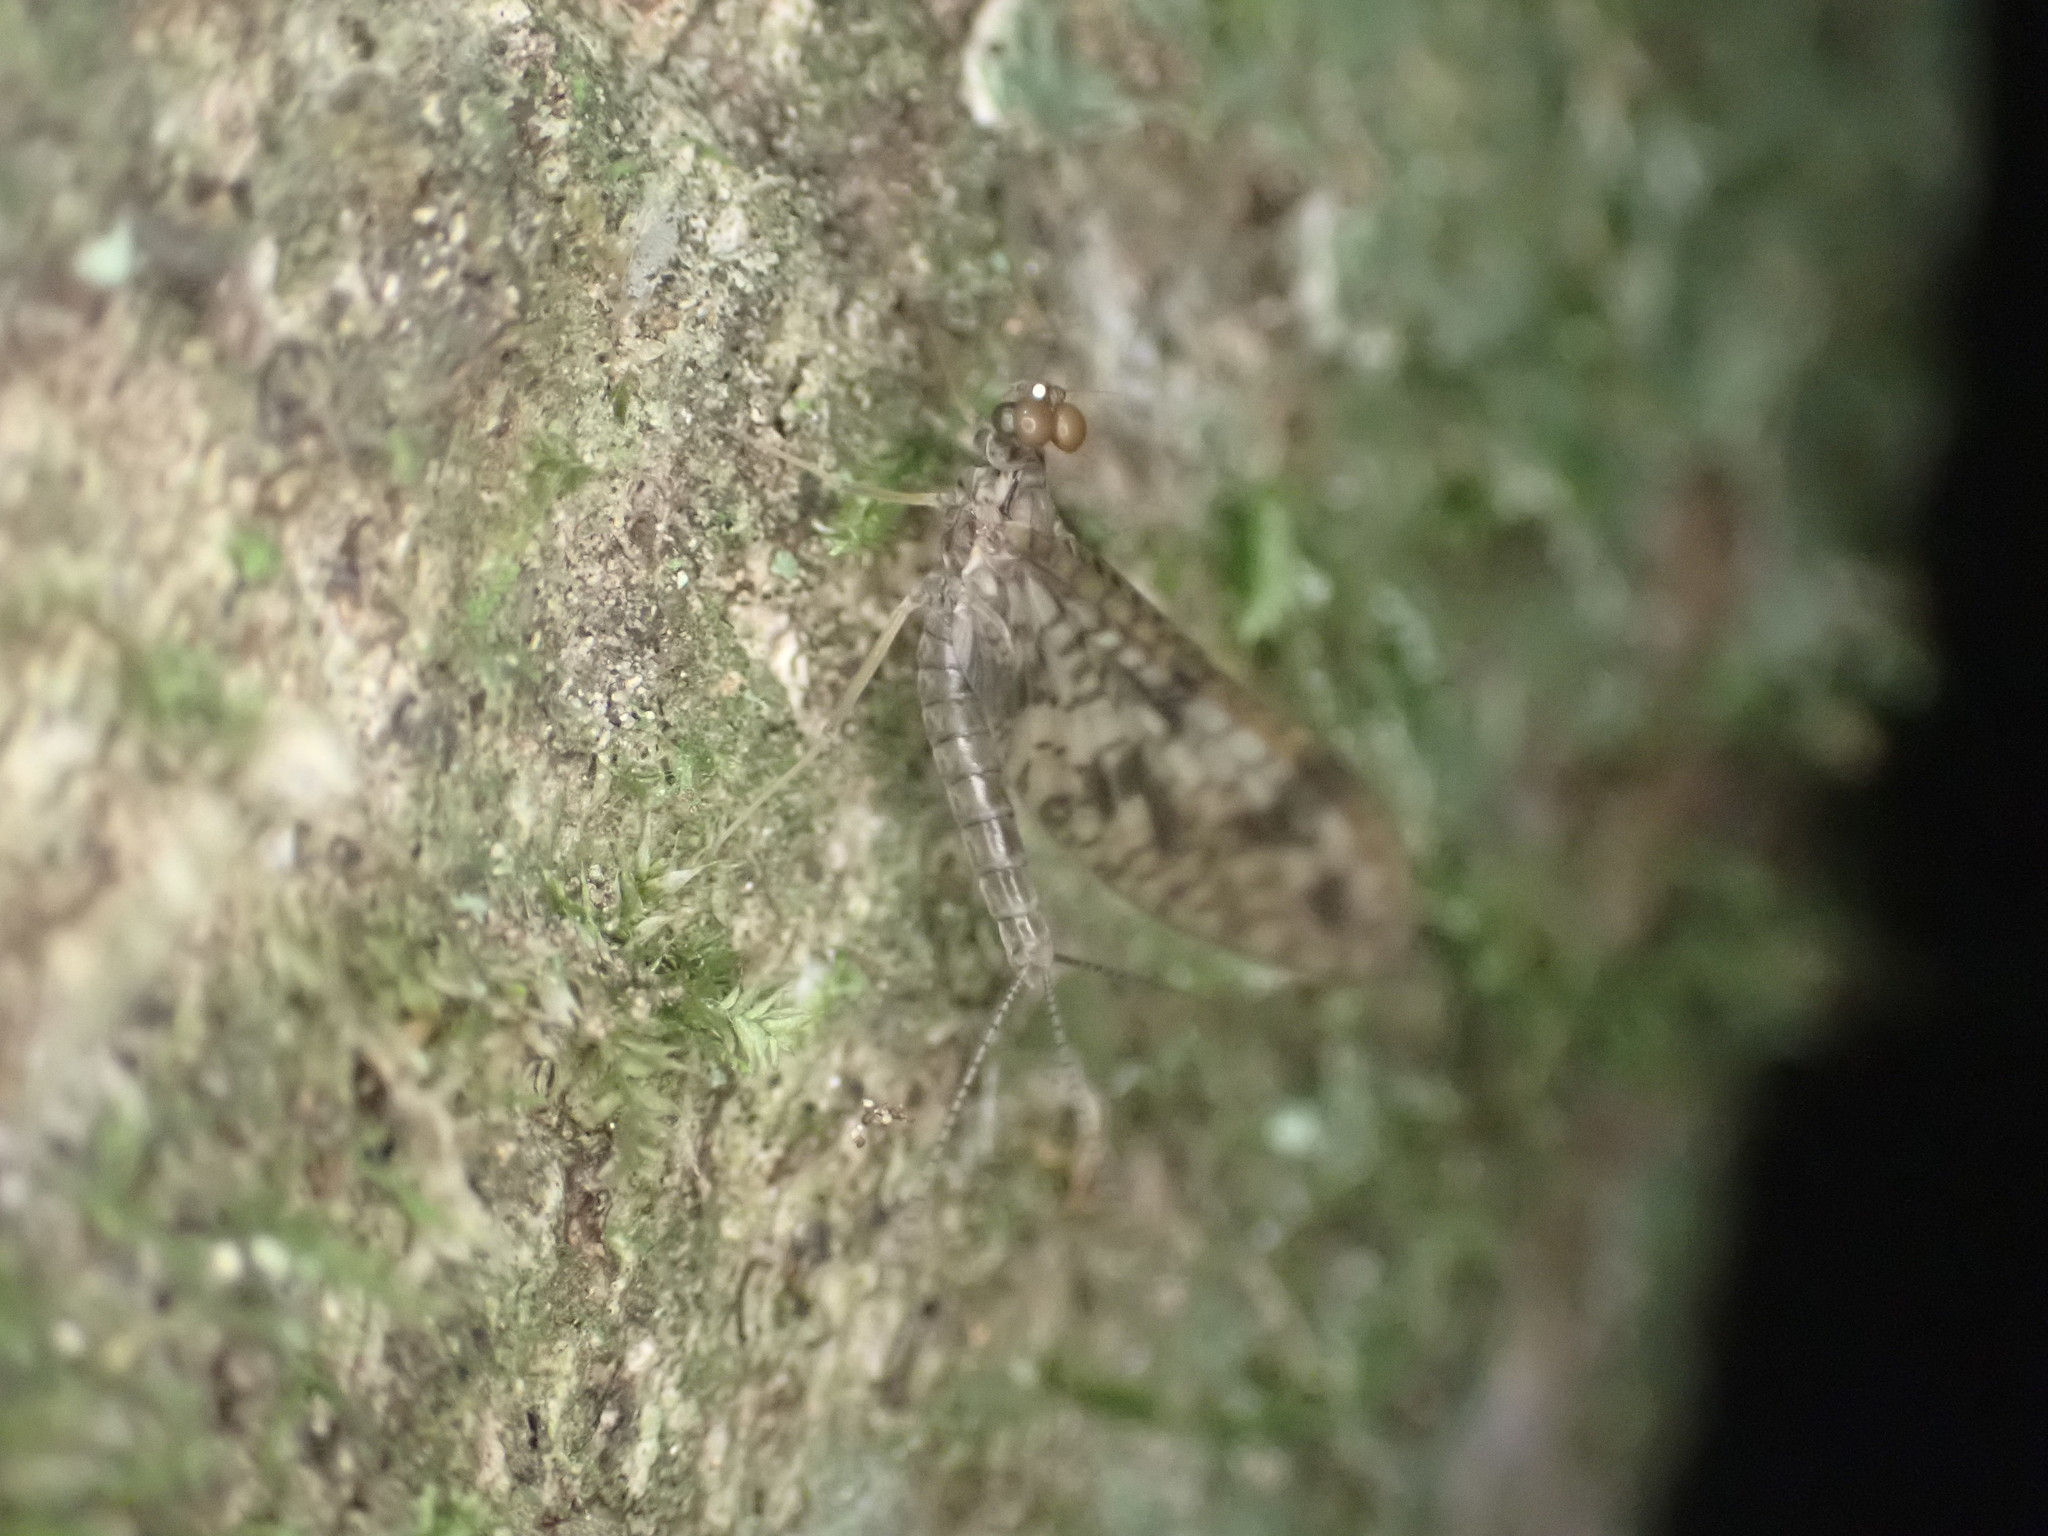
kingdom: Animalia
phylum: Arthropoda
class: Insecta
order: Ephemeroptera
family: Leptophlebiidae
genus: Zephlebia
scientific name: Zephlebia versicolor
